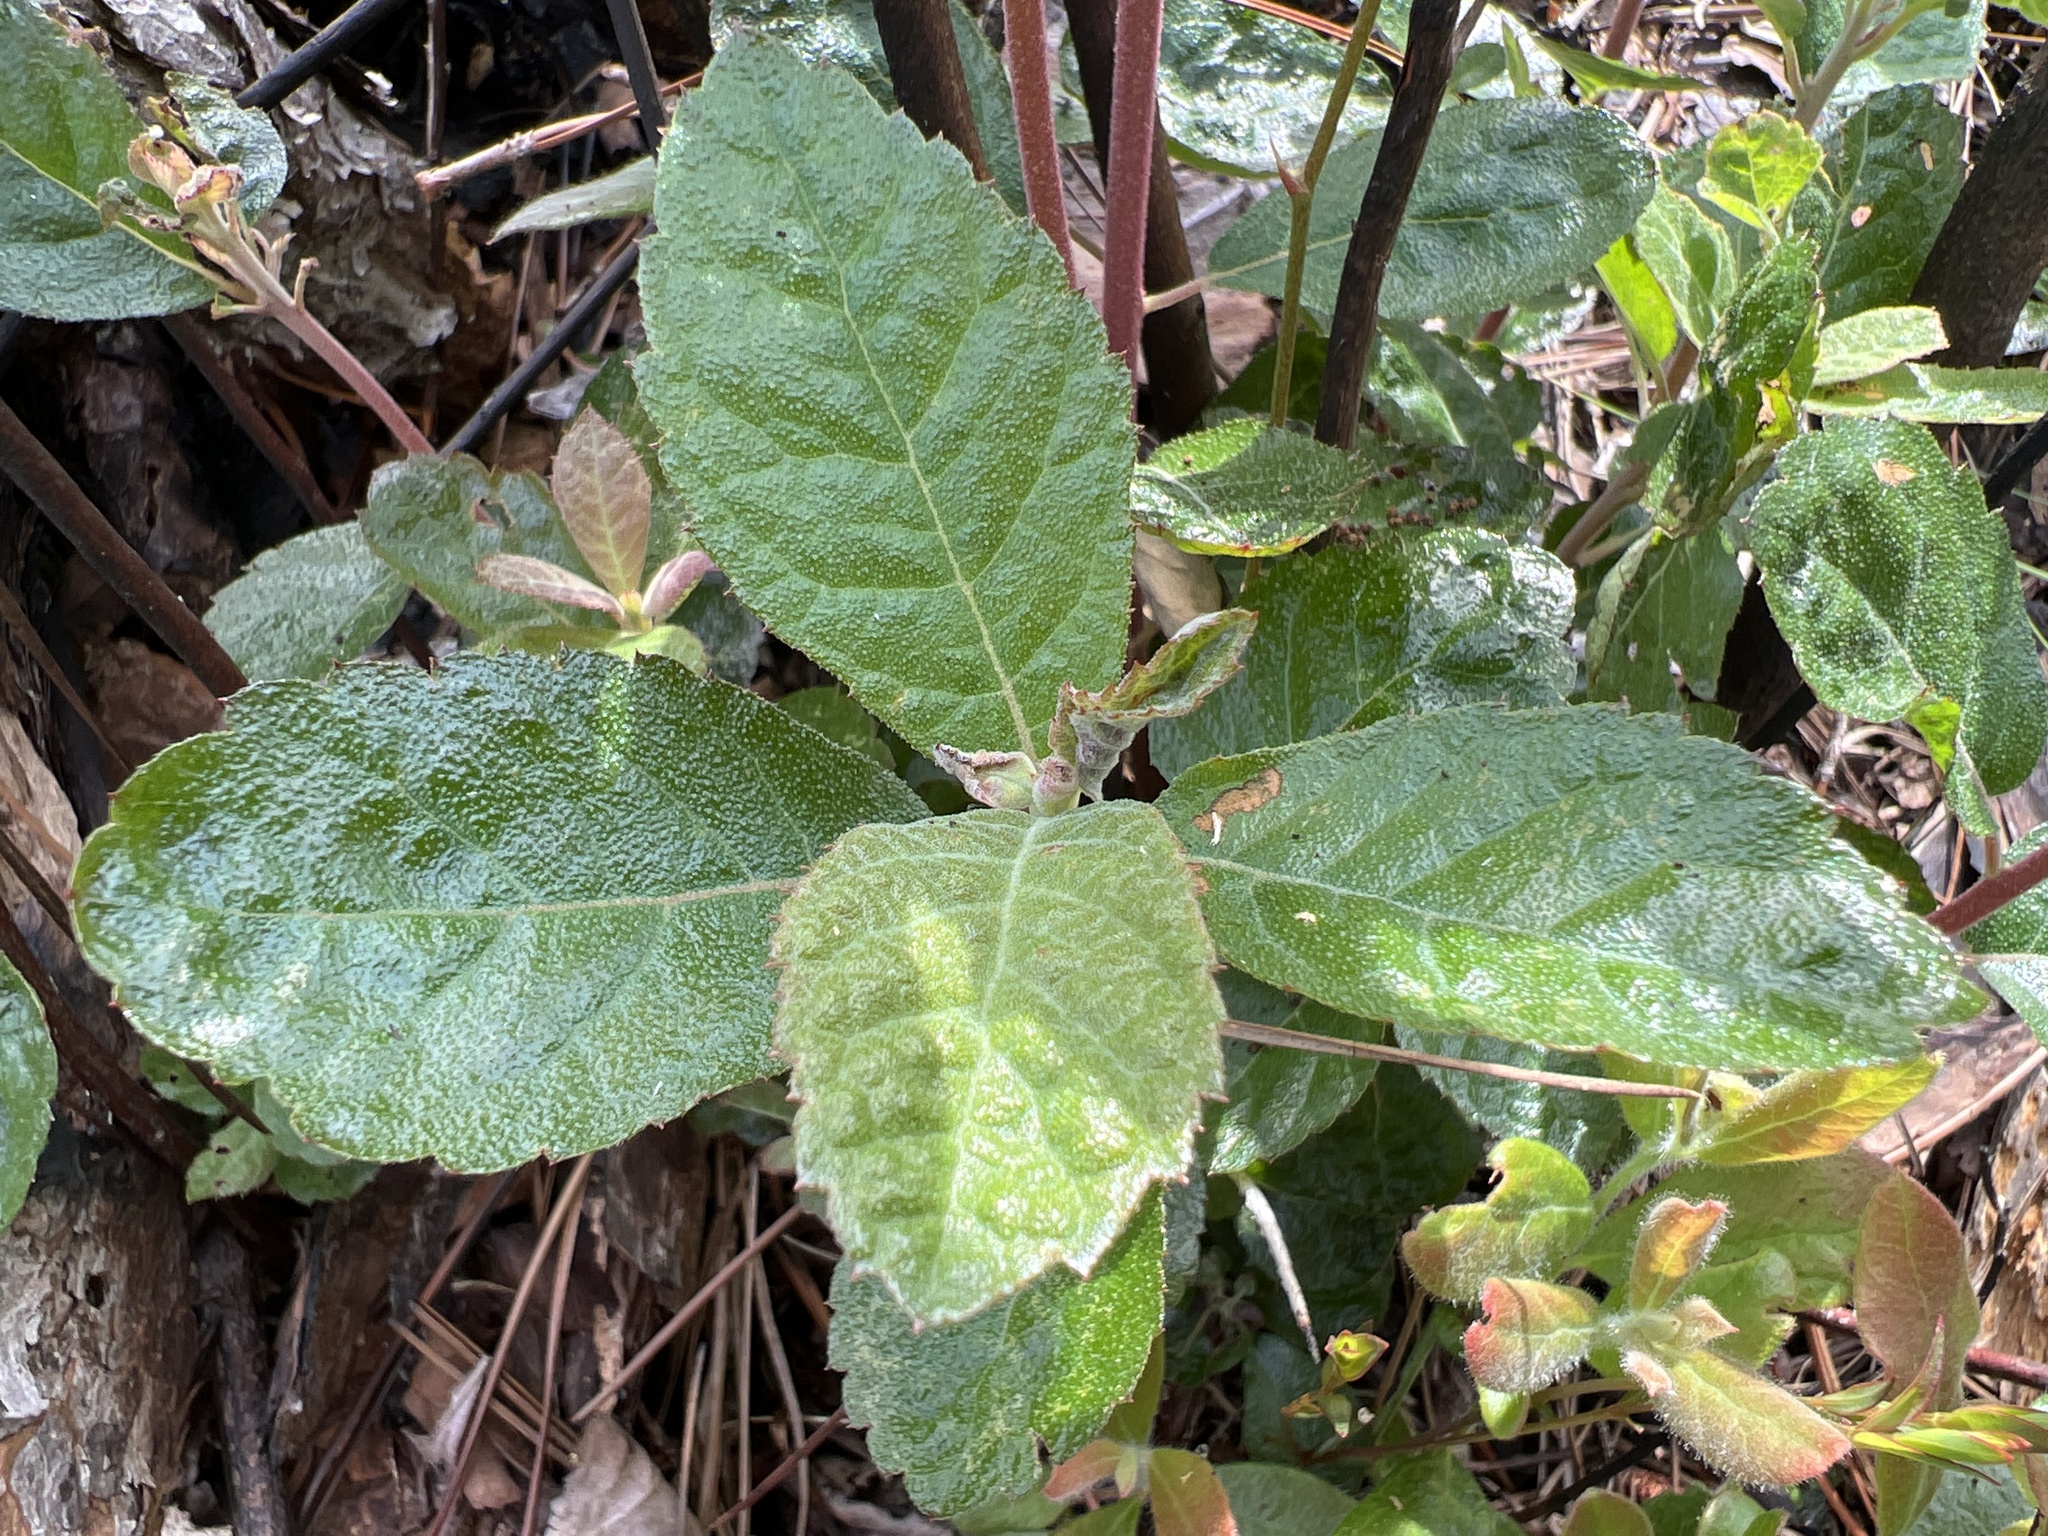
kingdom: Plantae
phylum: Tracheophyta
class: Magnoliopsida
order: Ericales
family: Clethraceae
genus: Clethra
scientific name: Clethra tomentosa
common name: Downy sweet pepperbush
